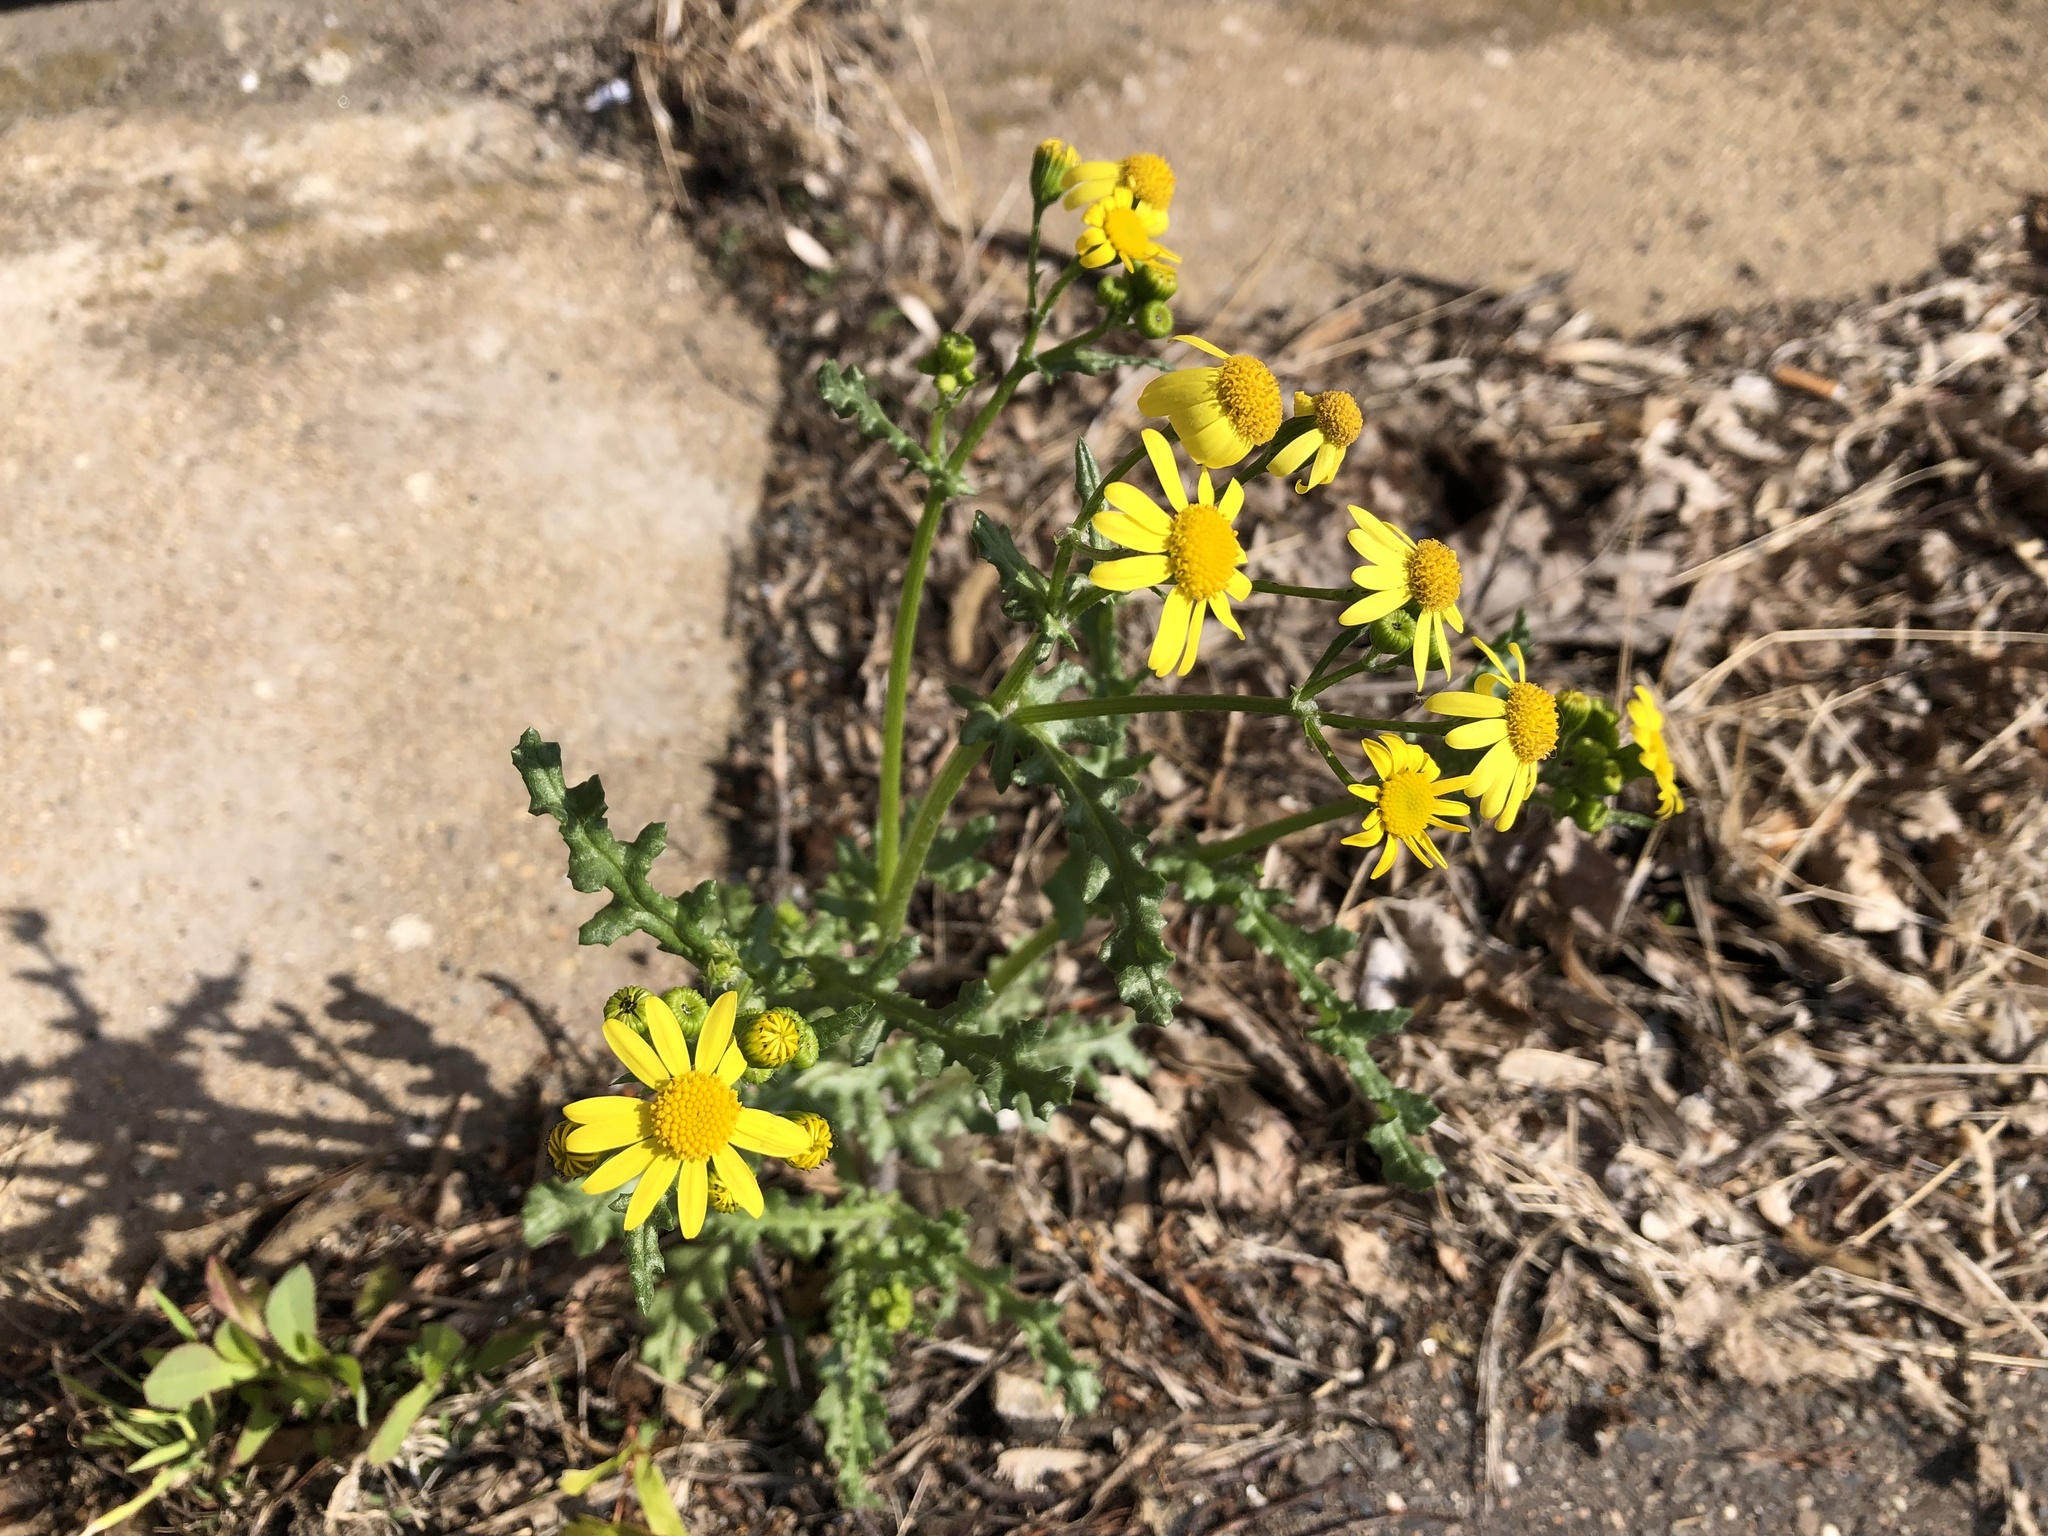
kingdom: Plantae
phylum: Tracheophyta
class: Magnoliopsida
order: Asterales
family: Asteraceae
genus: Senecio
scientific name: Senecio vernalis
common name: Eastern groundsel
